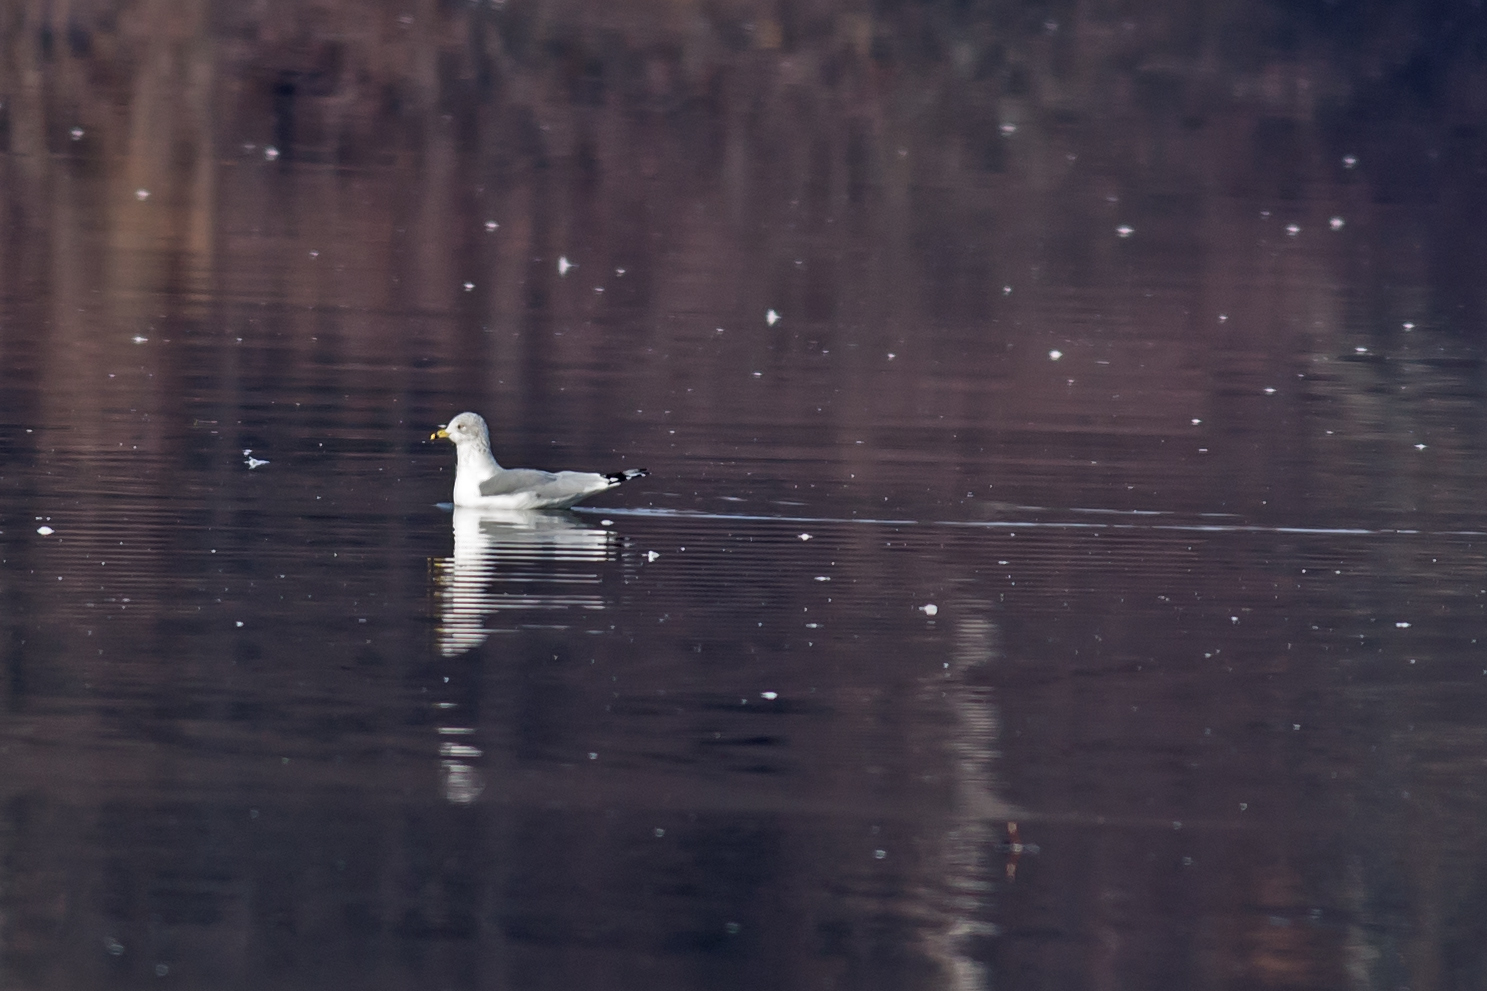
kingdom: Animalia
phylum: Chordata
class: Aves
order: Charadriiformes
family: Laridae
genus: Larus
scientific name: Larus delawarensis
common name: Ring-billed gull
